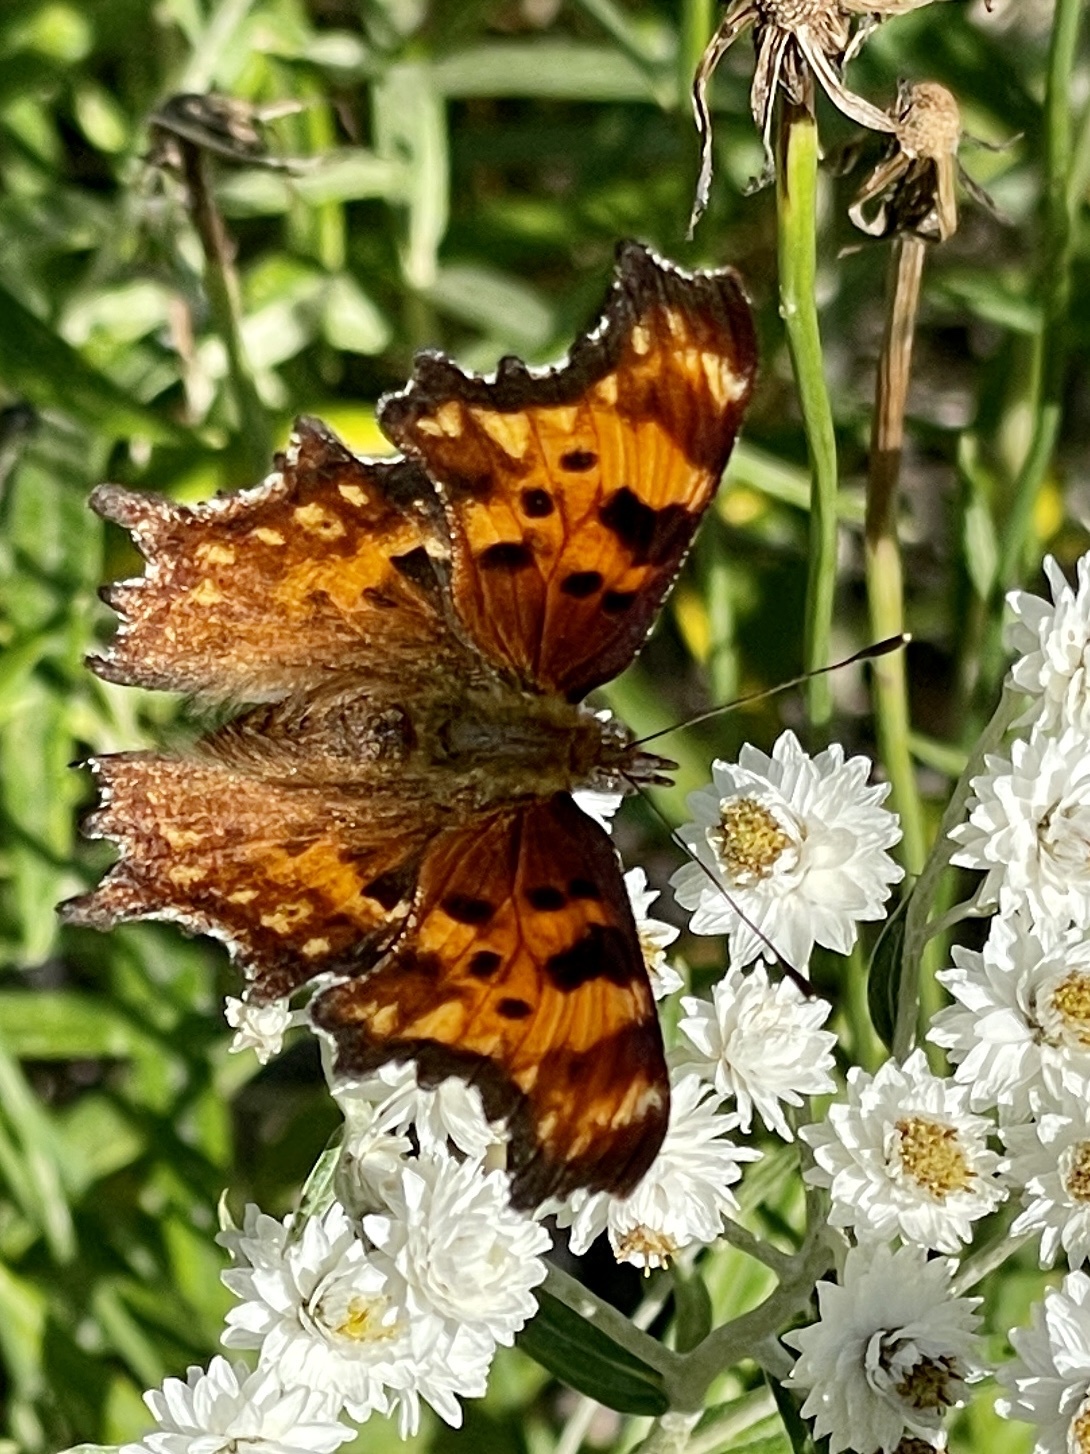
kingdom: Animalia
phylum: Arthropoda
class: Insecta
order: Lepidoptera
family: Nymphalidae
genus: Polygonia
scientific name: Polygonia gracilis
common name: Hoary comma
